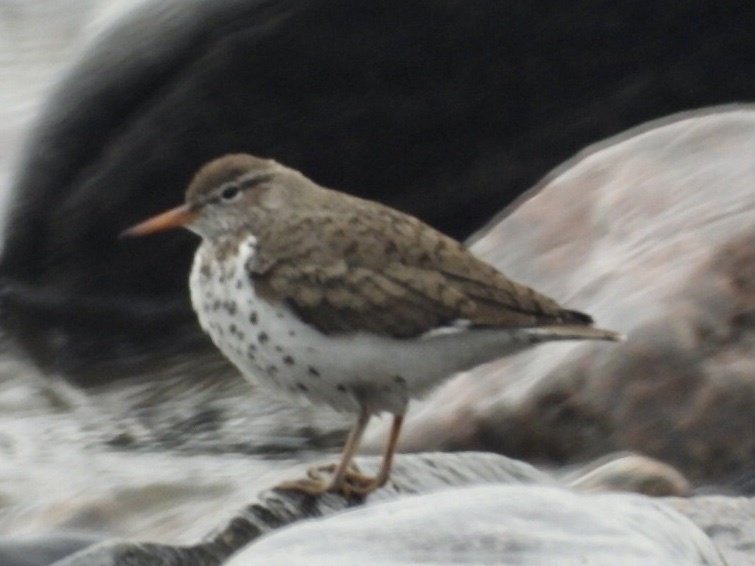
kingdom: Animalia
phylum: Chordata
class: Aves
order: Charadriiformes
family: Scolopacidae
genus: Actitis
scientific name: Actitis macularius
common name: Spotted sandpiper
